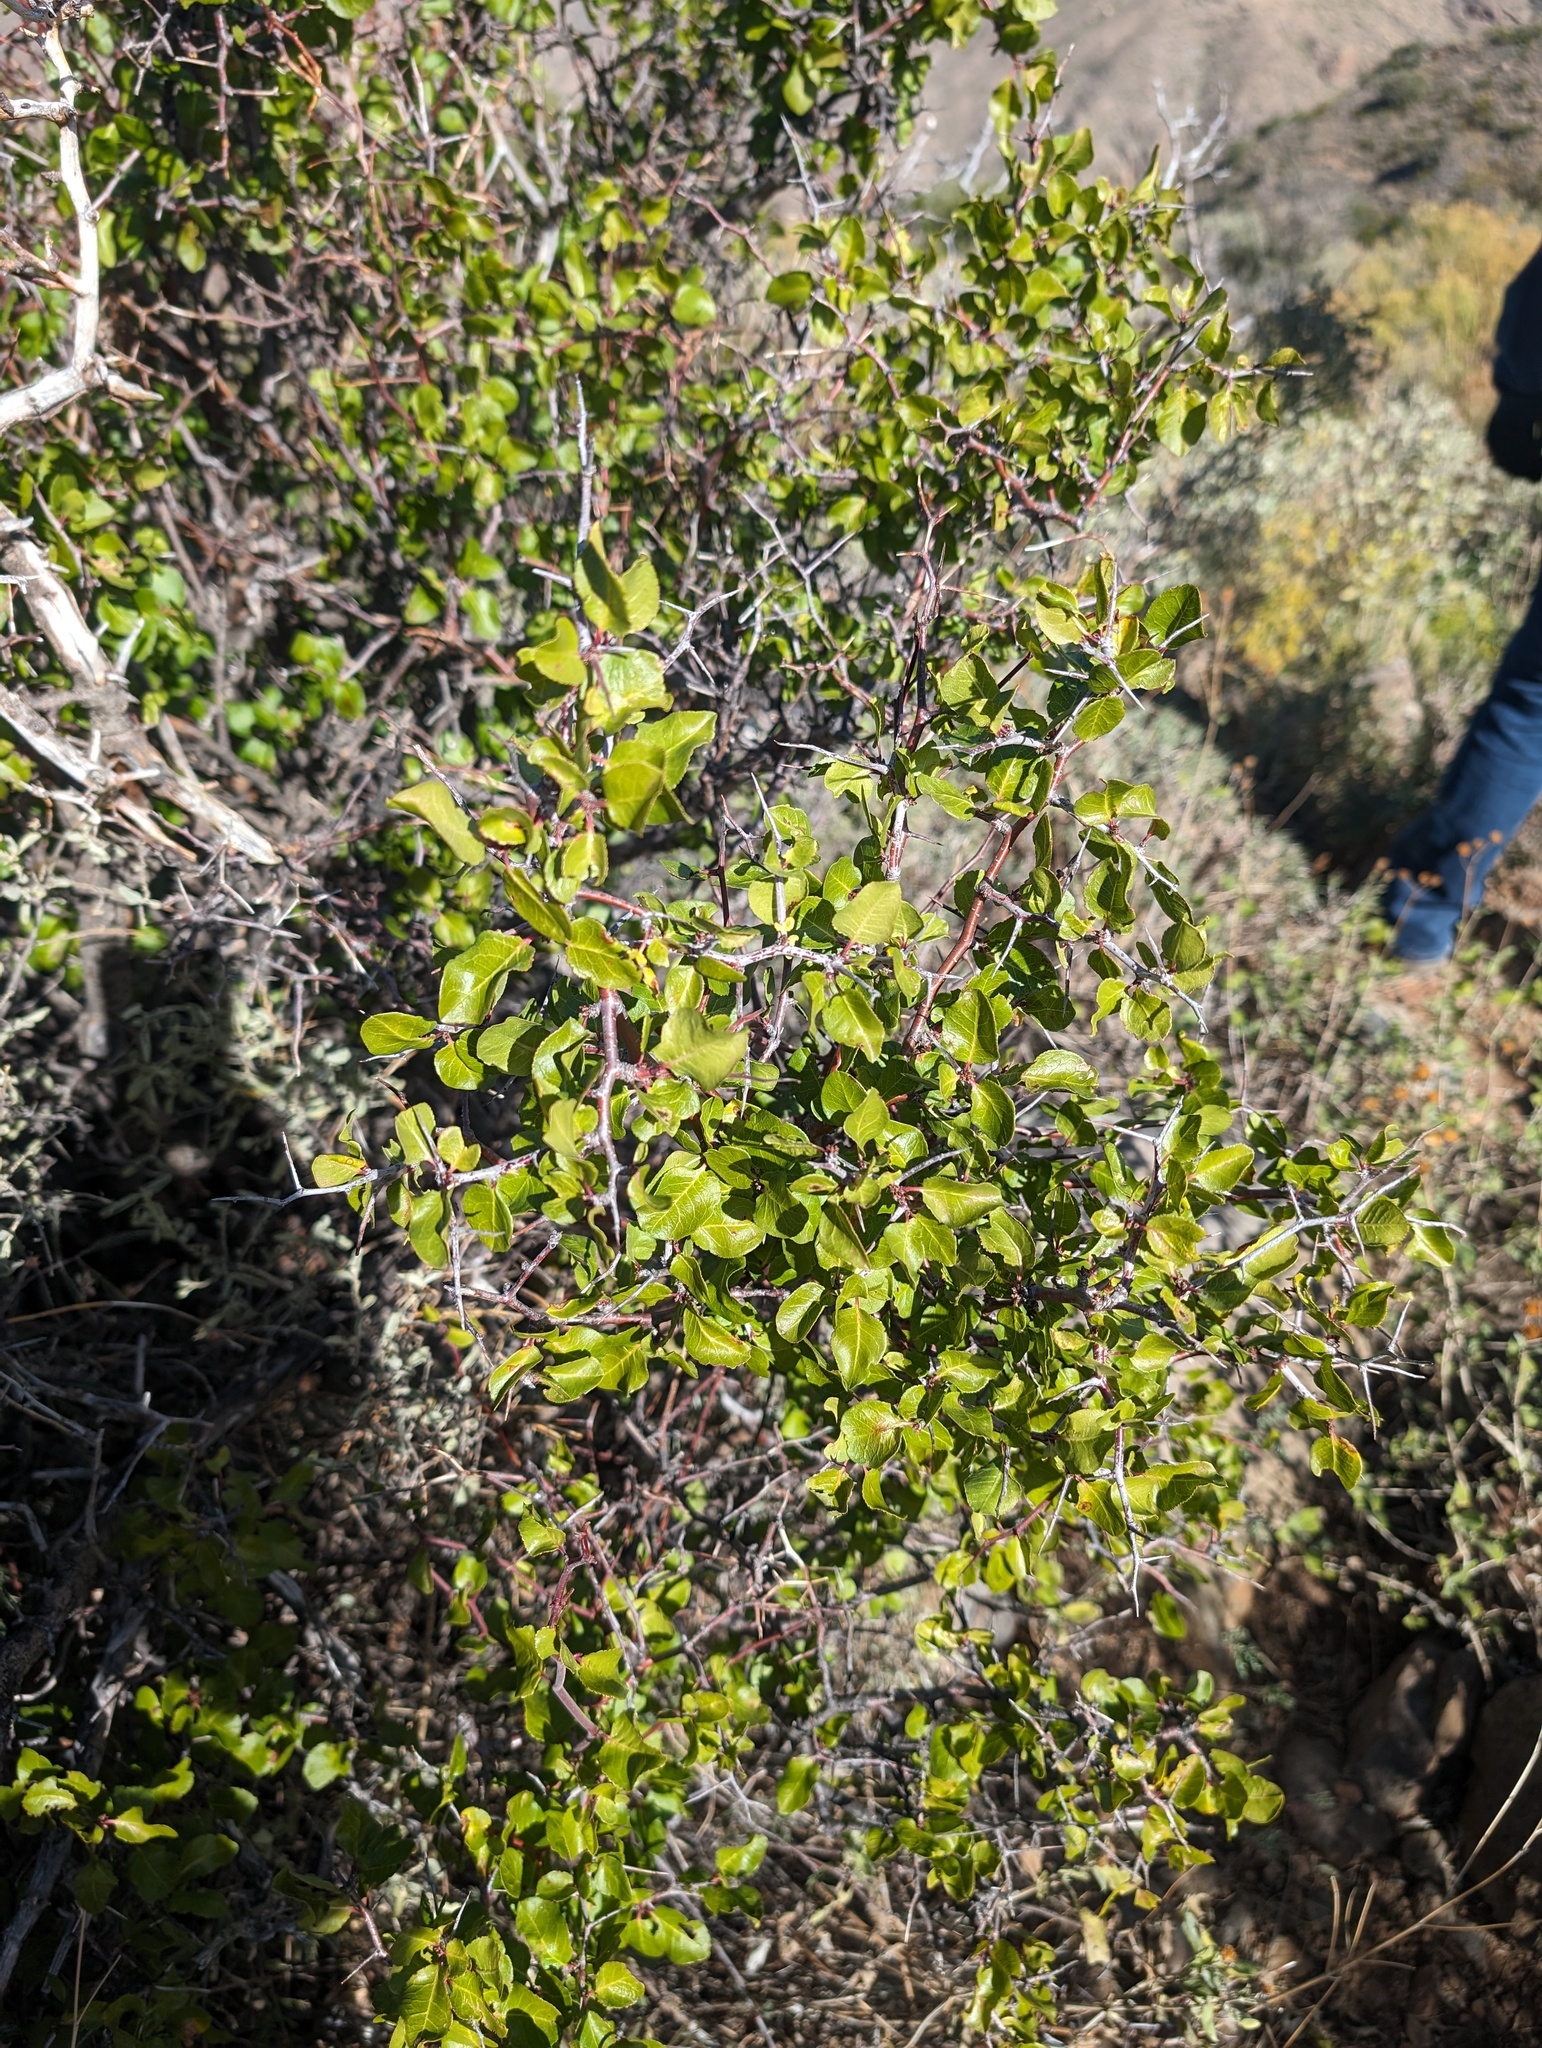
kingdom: Plantae
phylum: Tracheophyta
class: Magnoliopsida
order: Rosales
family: Rosaceae
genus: Prunus
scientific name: Prunus fremontii
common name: Desert apricot
